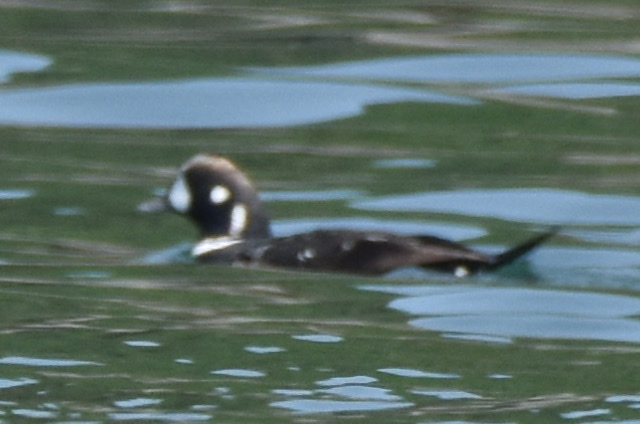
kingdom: Animalia
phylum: Chordata
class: Aves
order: Anseriformes
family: Anatidae
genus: Histrionicus
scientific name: Histrionicus histrionicus
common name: Harlequin duck
